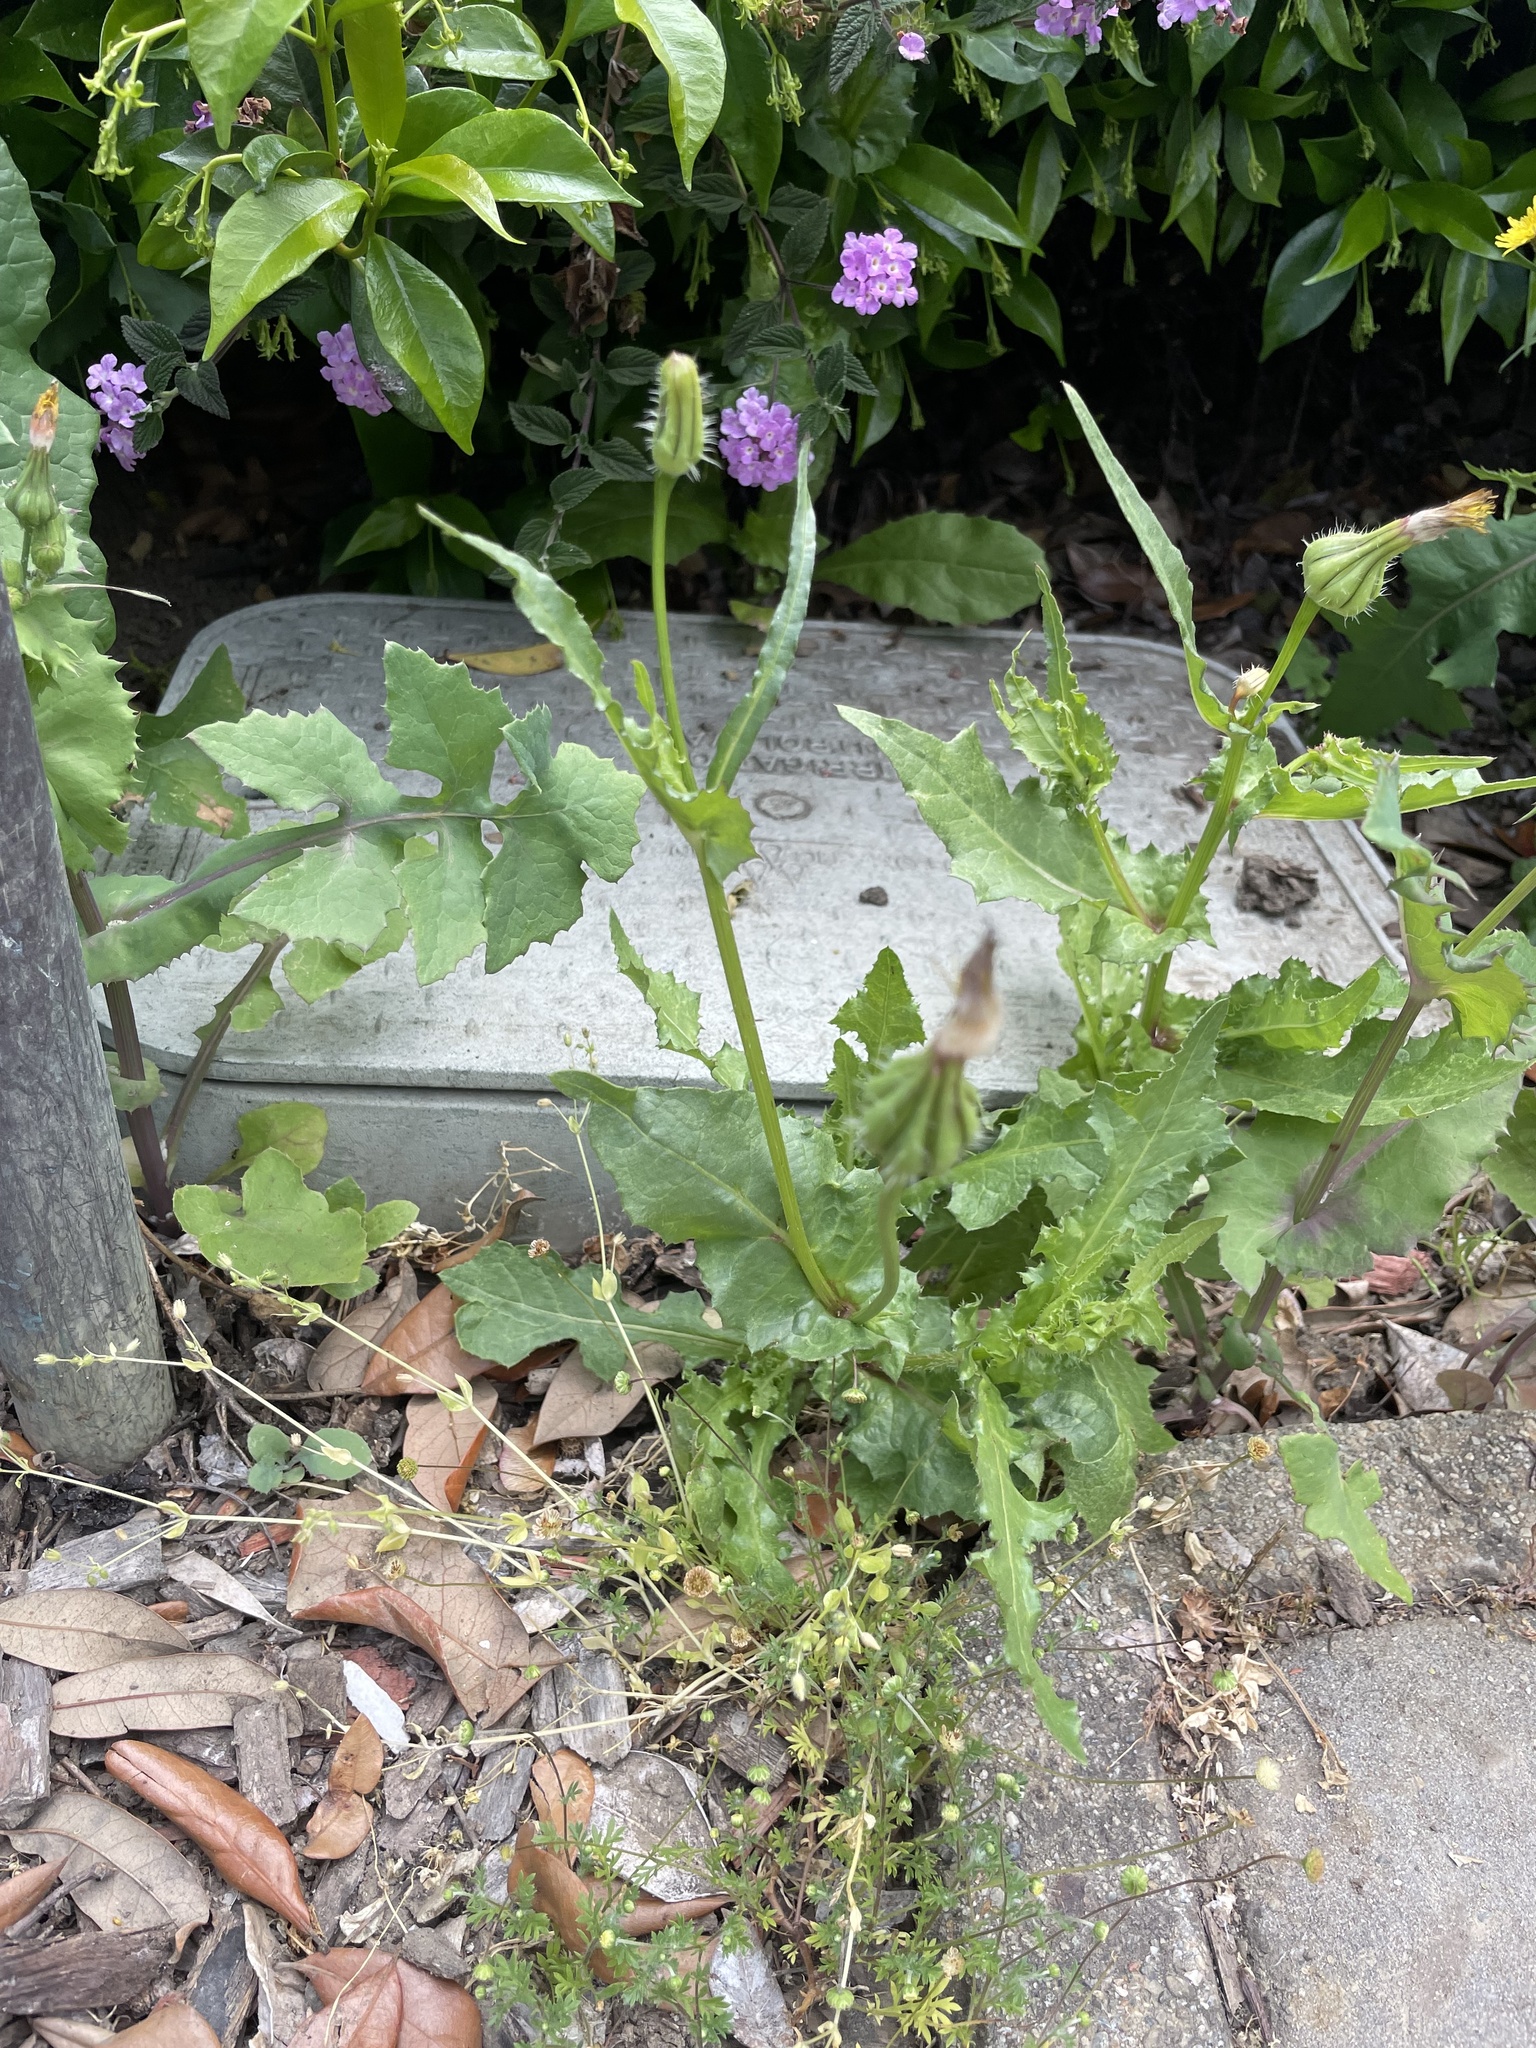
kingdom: Plantae
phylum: Tracheophyta
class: Magnoliopsida
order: Asterales
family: Asteraceae
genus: Urospermum
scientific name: Urospermum picroides
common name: False hawkbit
